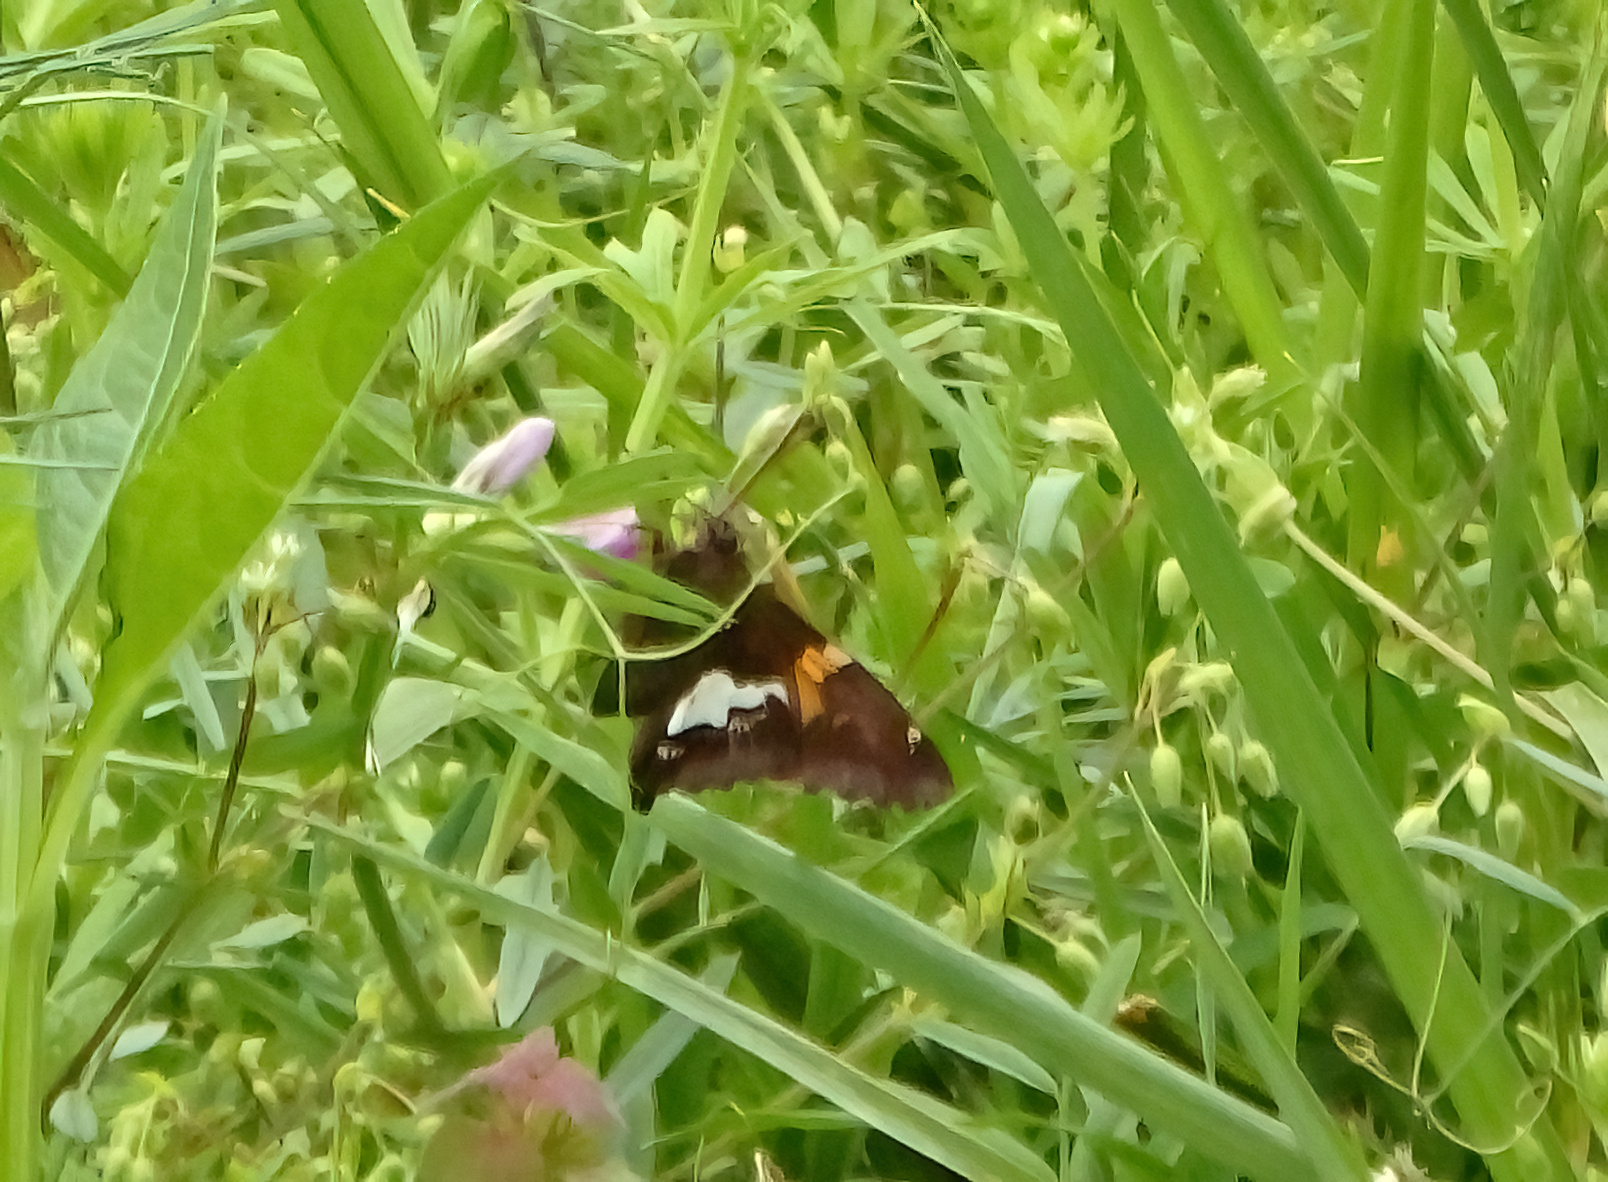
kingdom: Animalia
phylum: Arthropoda
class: Insecta
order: Lepidoptera
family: Hesperiidae
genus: Epargyreus
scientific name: Epargyreus clarus
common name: Silver-spotted skipper
